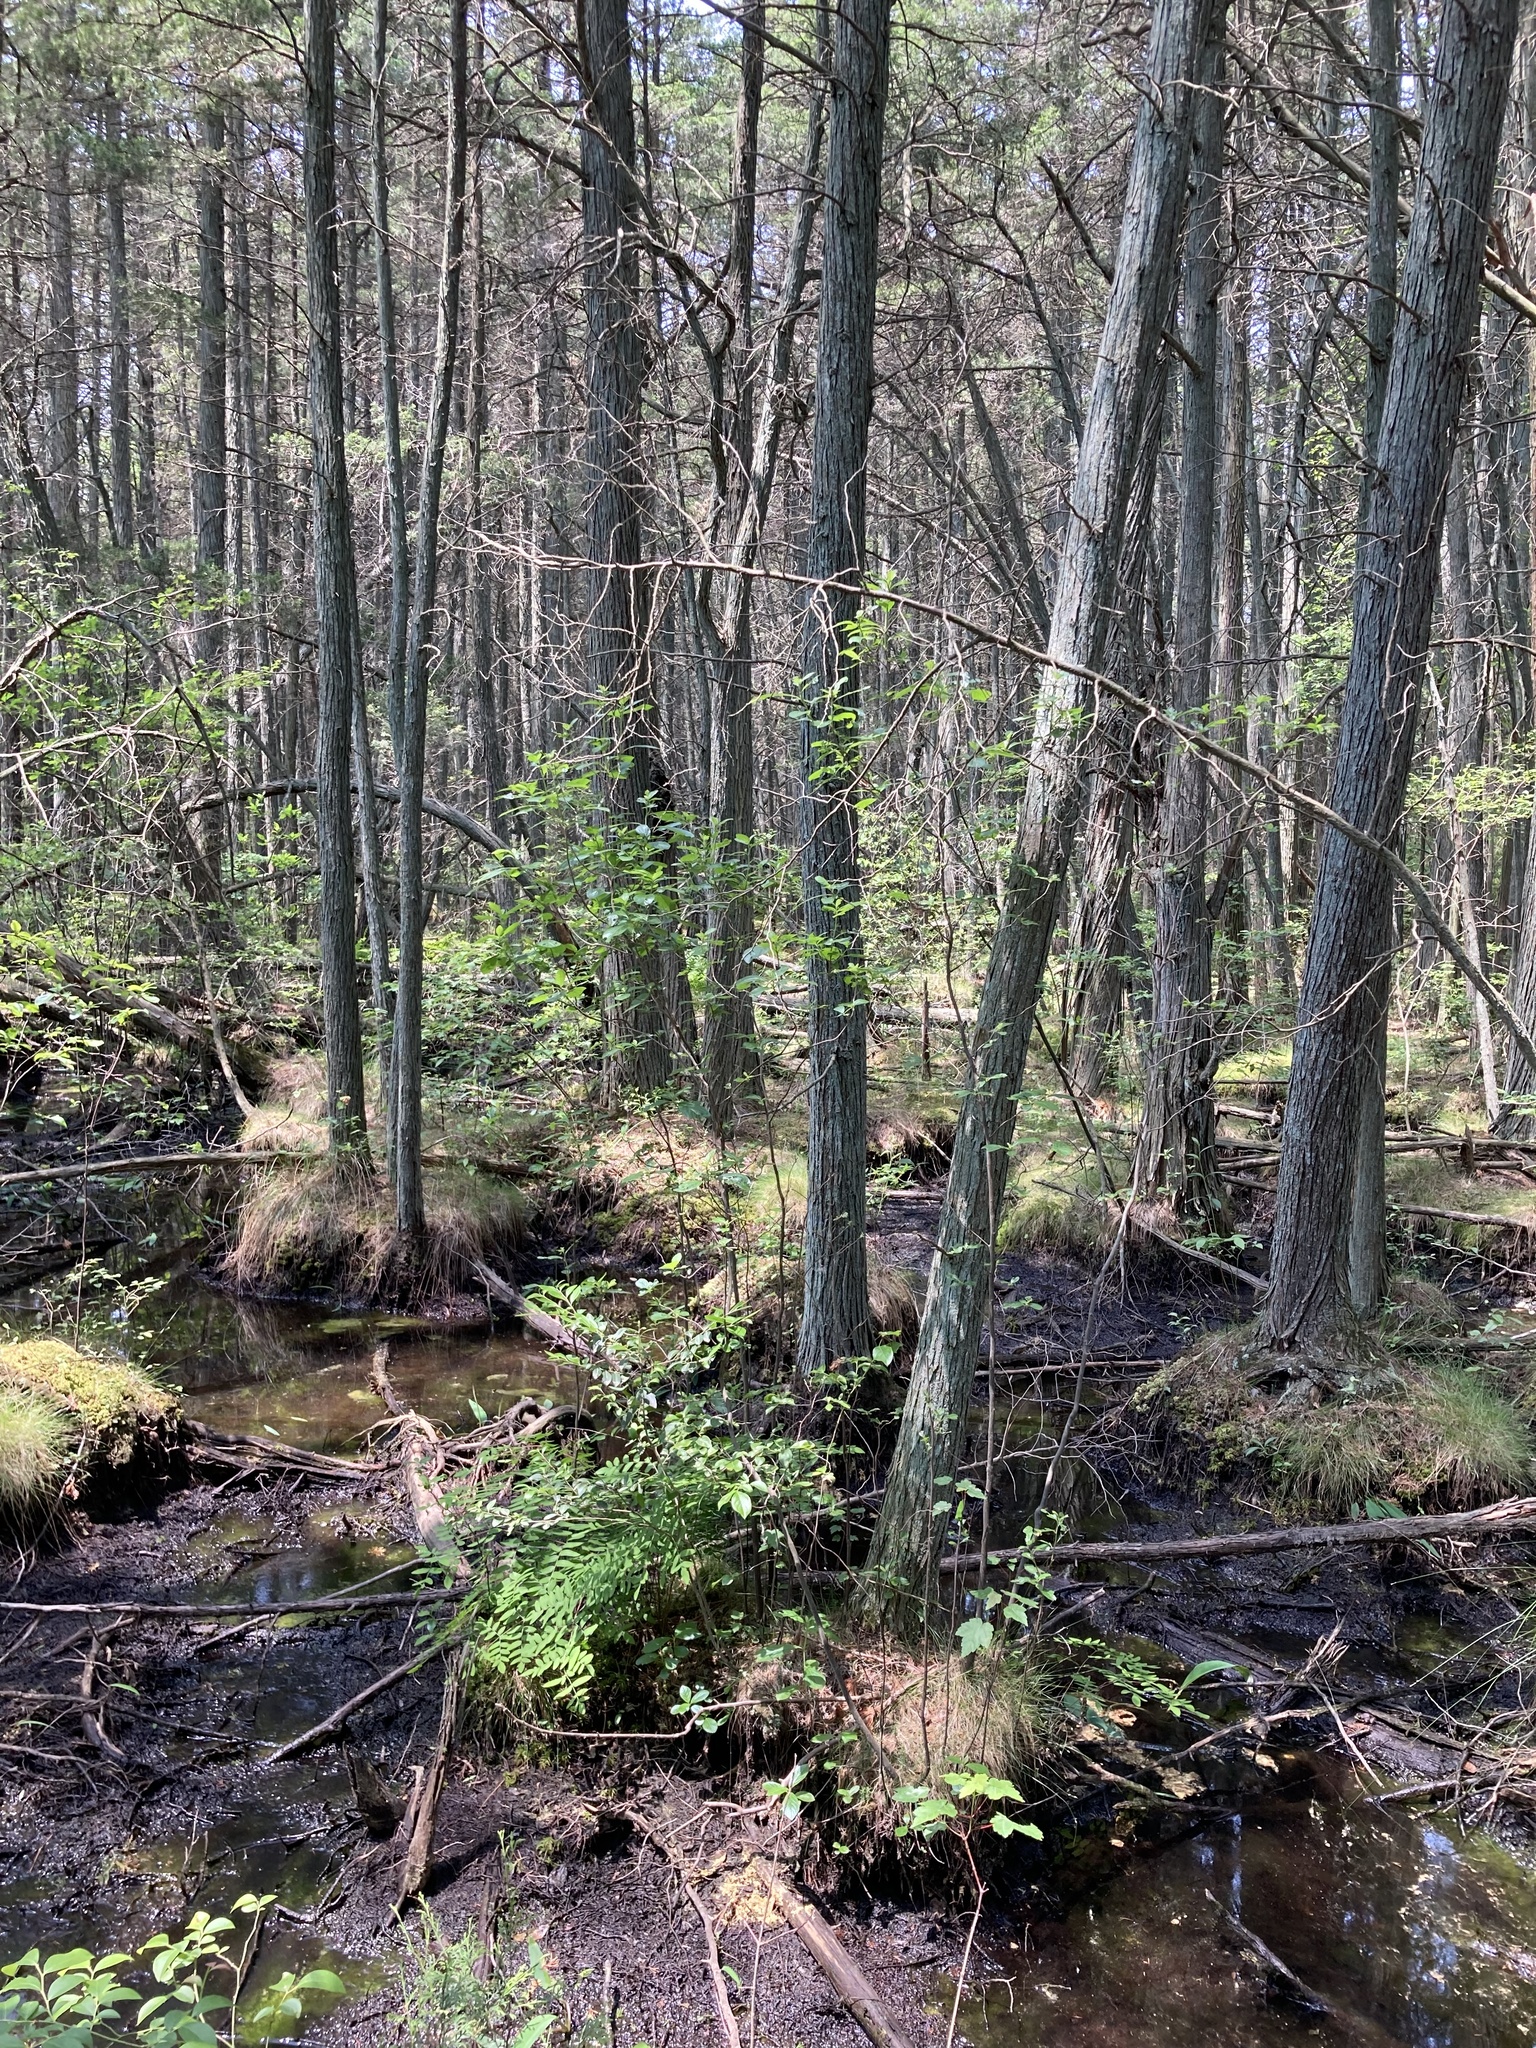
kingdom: Plantae
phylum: Tracheophyta
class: Polypodiopsida
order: Osmundales
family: Osmundaceae
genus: Osmunda
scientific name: Osmunda spectabilis
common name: American royal fern
